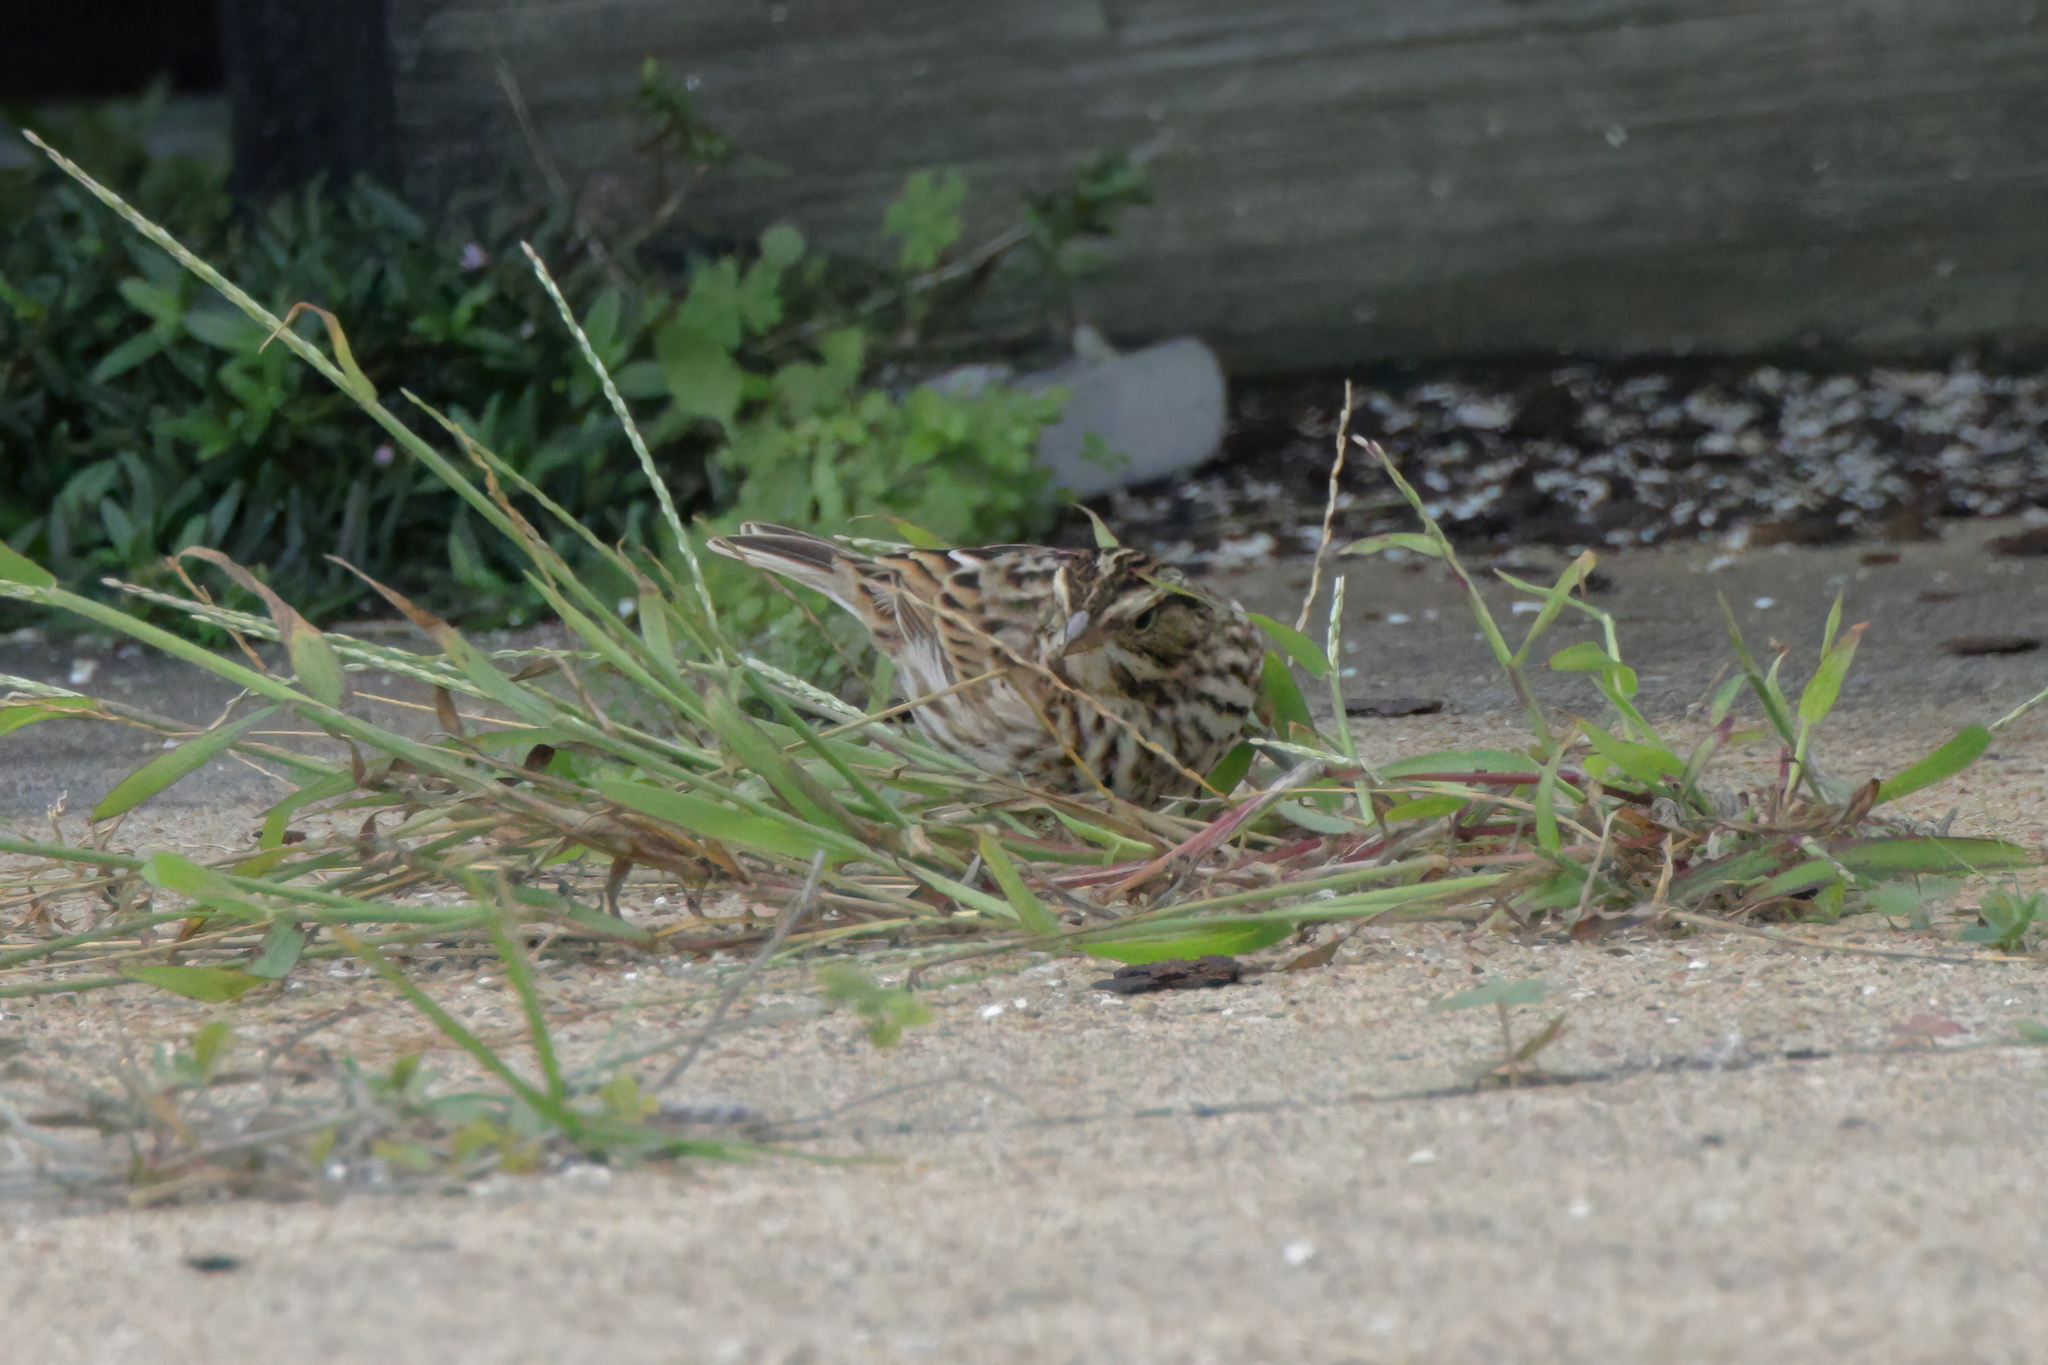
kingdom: Animalia
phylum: Chordata
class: Aves
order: Passeriformes
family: Passerellidae
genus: Passerculus
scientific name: Passerculus sandwichensis
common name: Savannah sparrow
